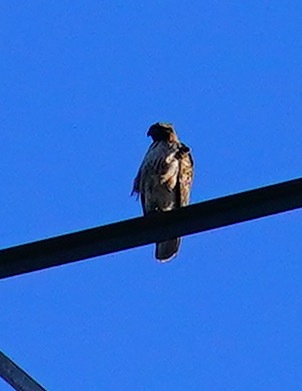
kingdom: Animalia
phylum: Chordata
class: Aves
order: Accipitriformes
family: Accipitridae
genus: Buteo
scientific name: Buteo jamaicensis
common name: Red-tailed hawk
